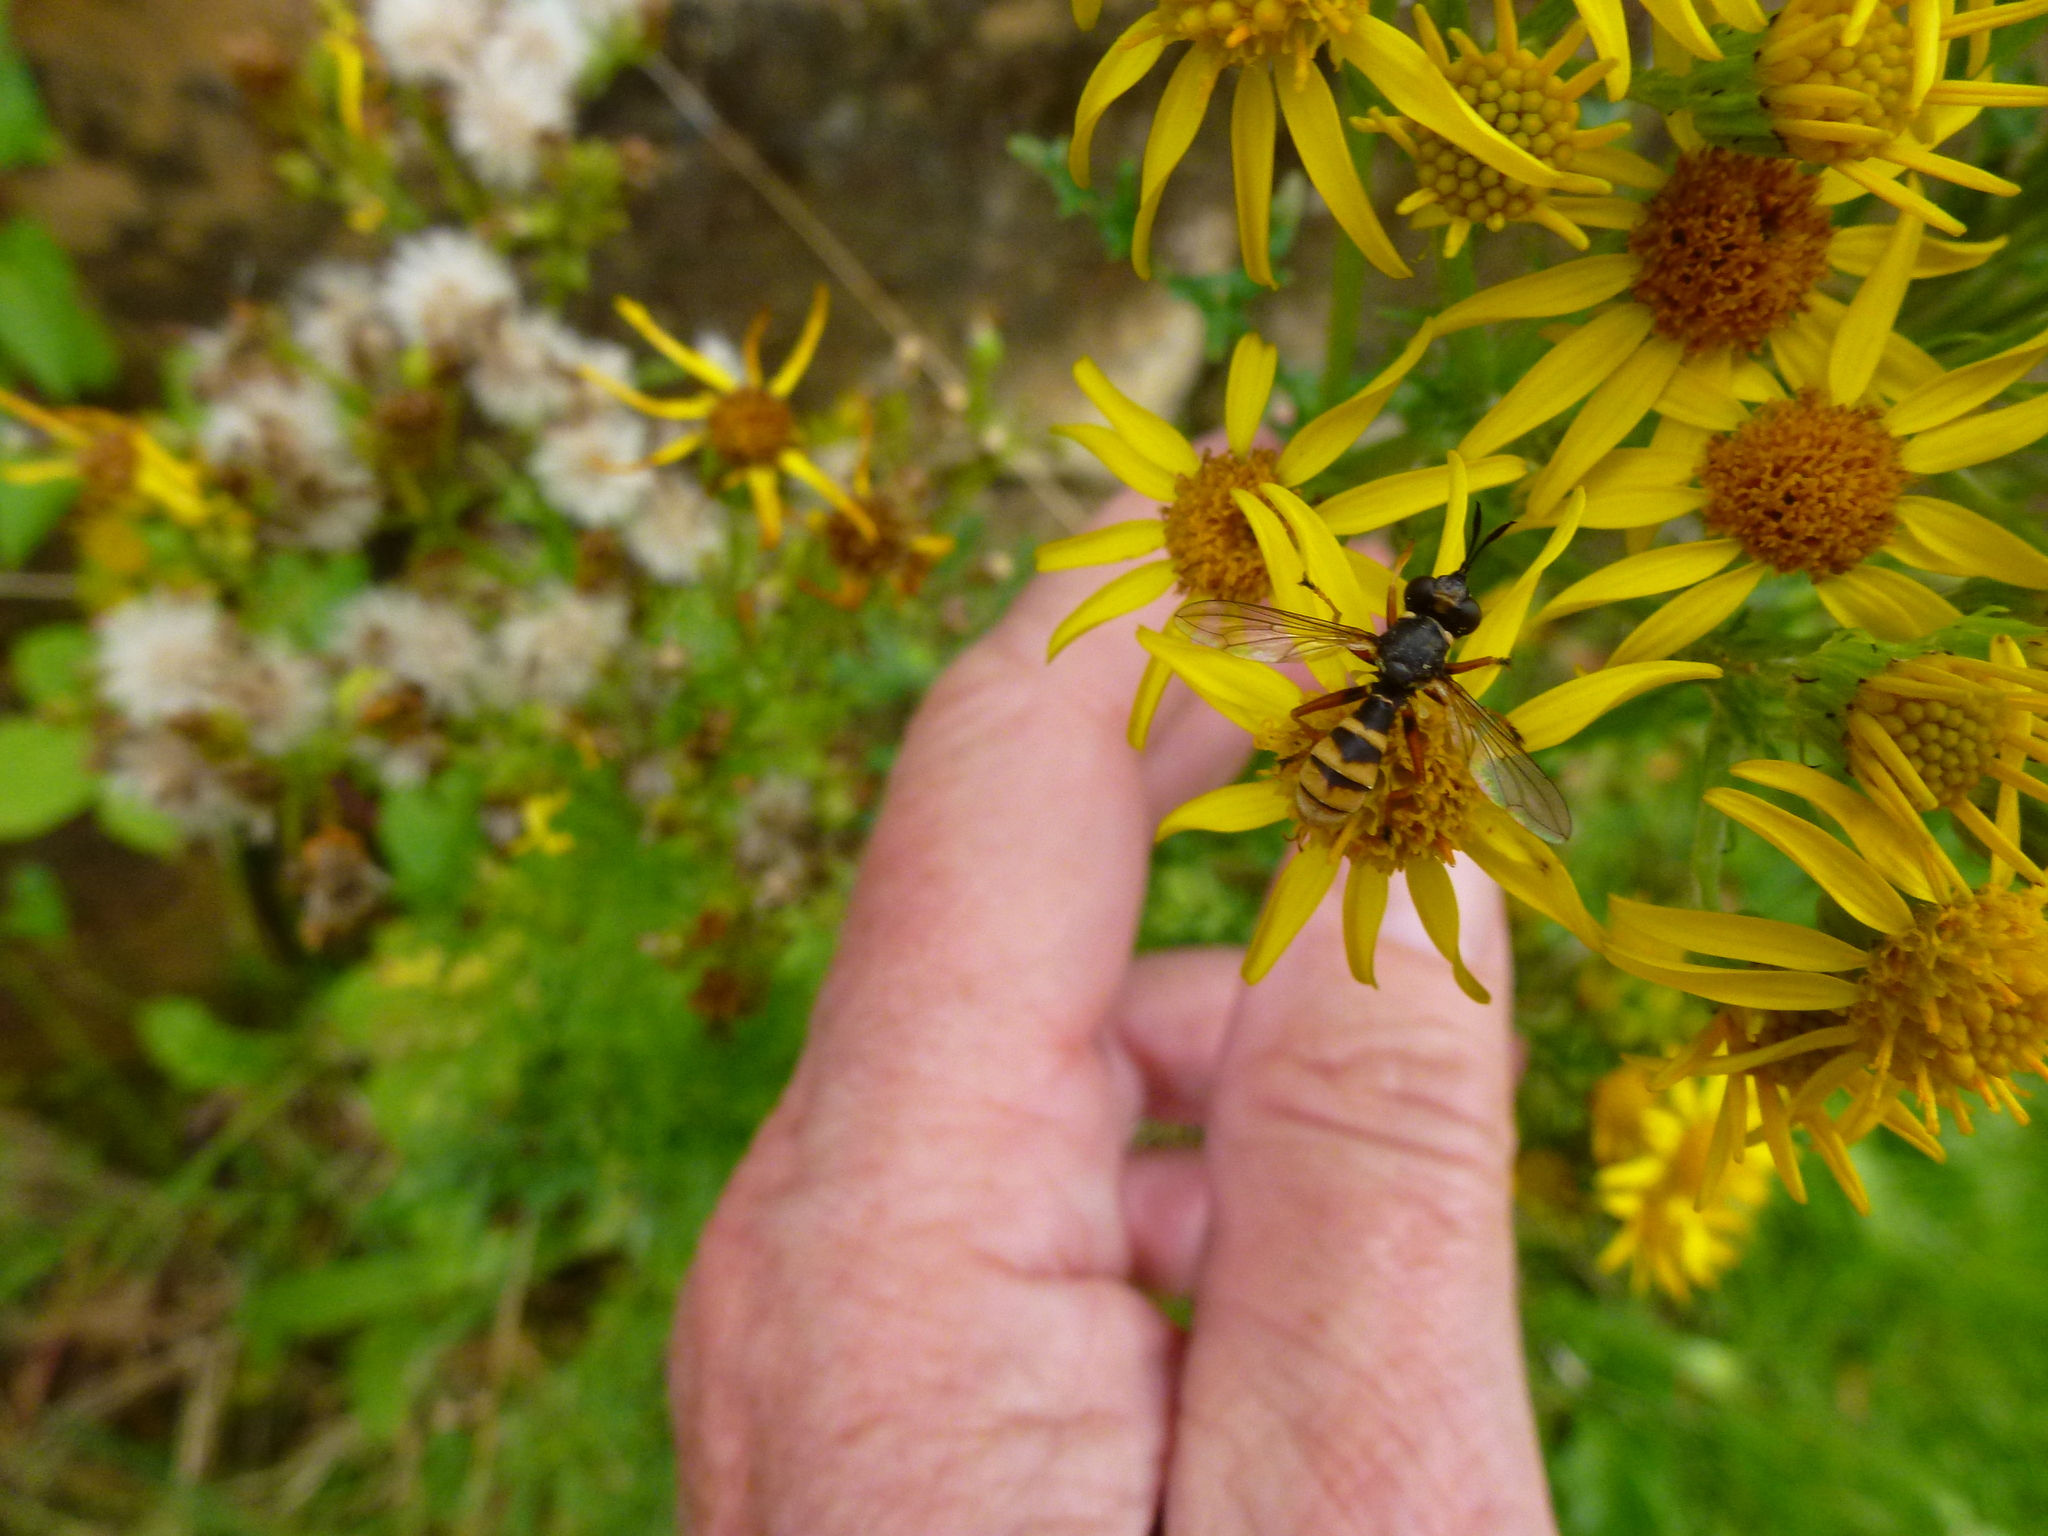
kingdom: Animalia
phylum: Arthropoda
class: Insecta
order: Diptera
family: Conopidae
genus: Conops
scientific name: Conops quadrifasciatus
